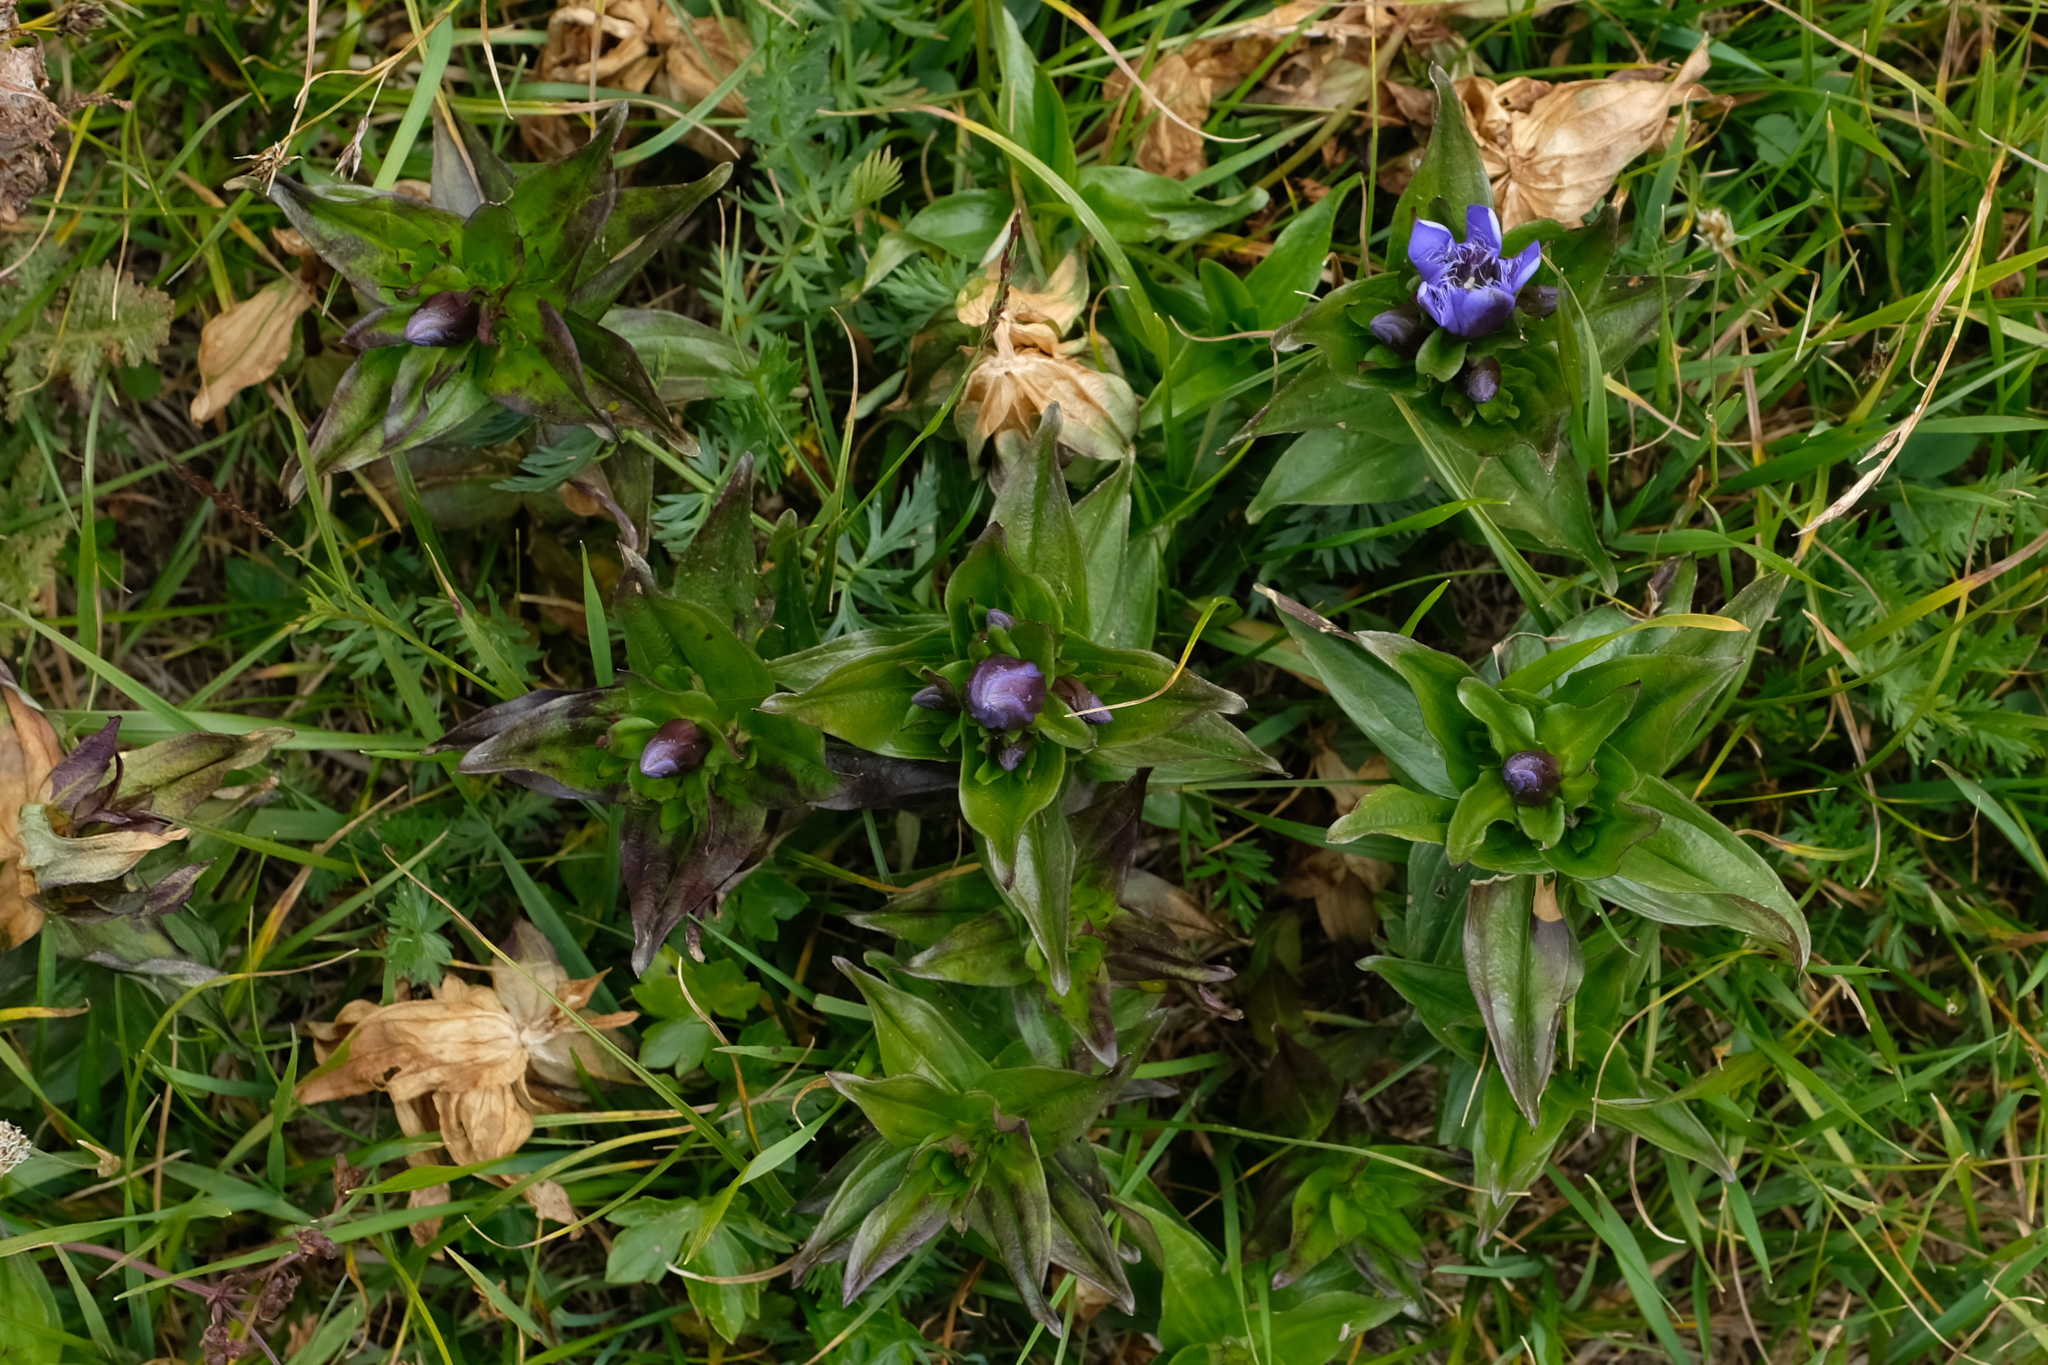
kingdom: Plantae
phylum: Tracheophyta
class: Magnoliopsida
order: Gentianales
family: Gentianaceae
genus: Gentiana
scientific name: Gentiana septemfida
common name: Crested gentian
